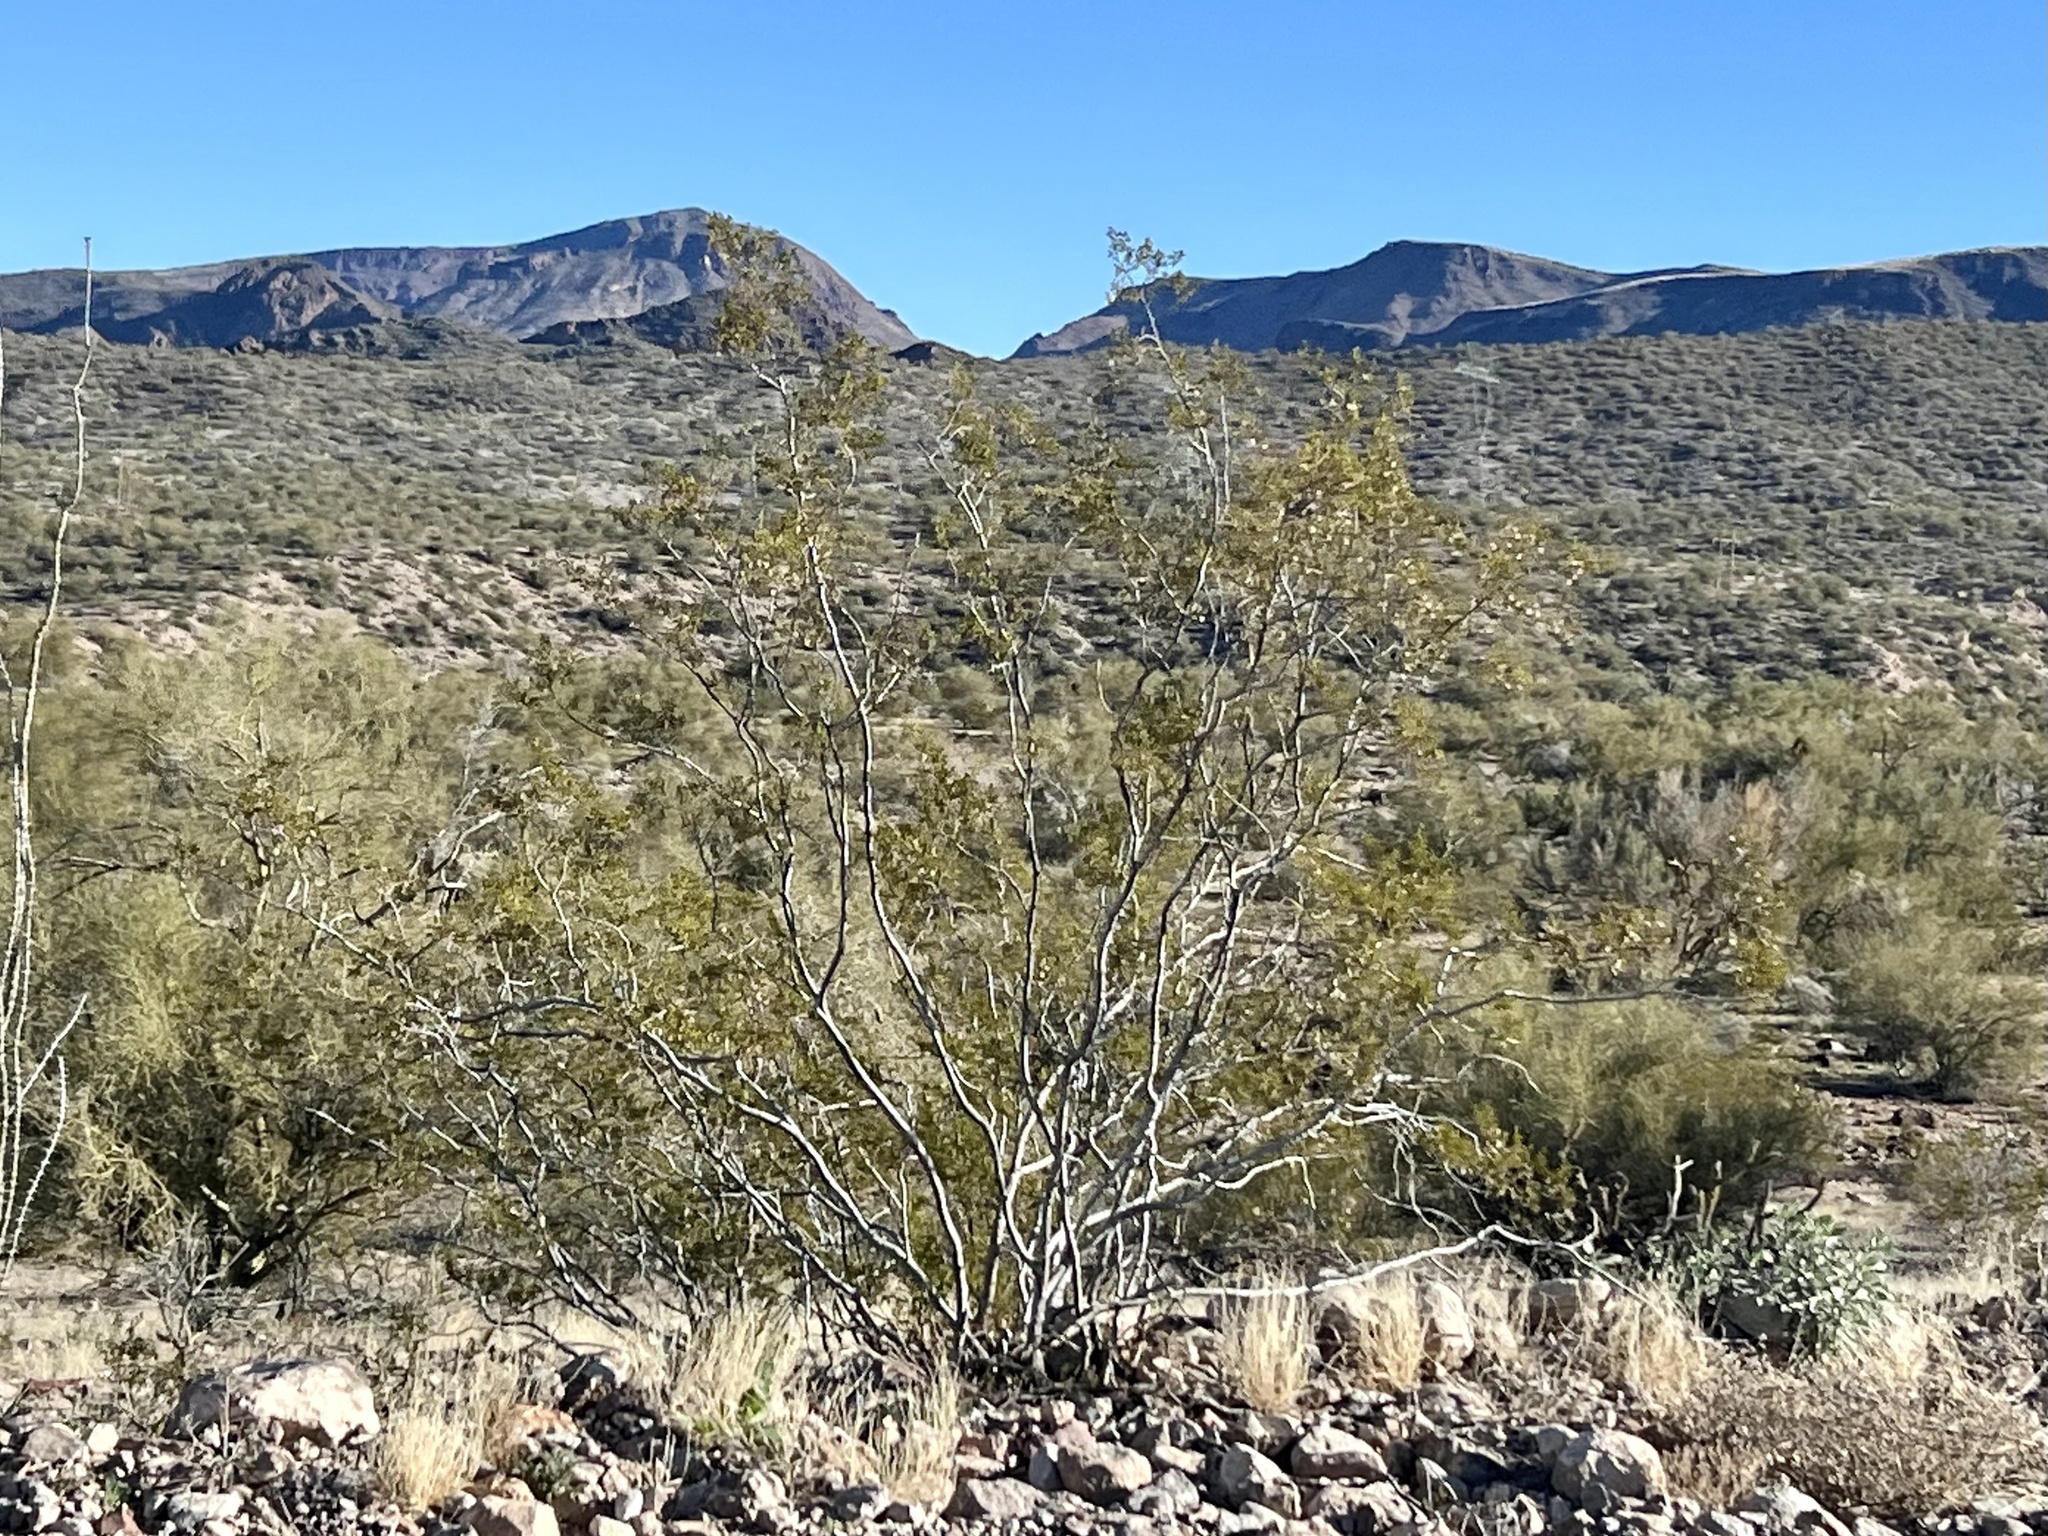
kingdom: Plantae
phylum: Tracheophyta
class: Magnoliopsida
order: Zygophyllales
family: Zygophyllaceae
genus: Larrea
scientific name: Larrea tridentata
